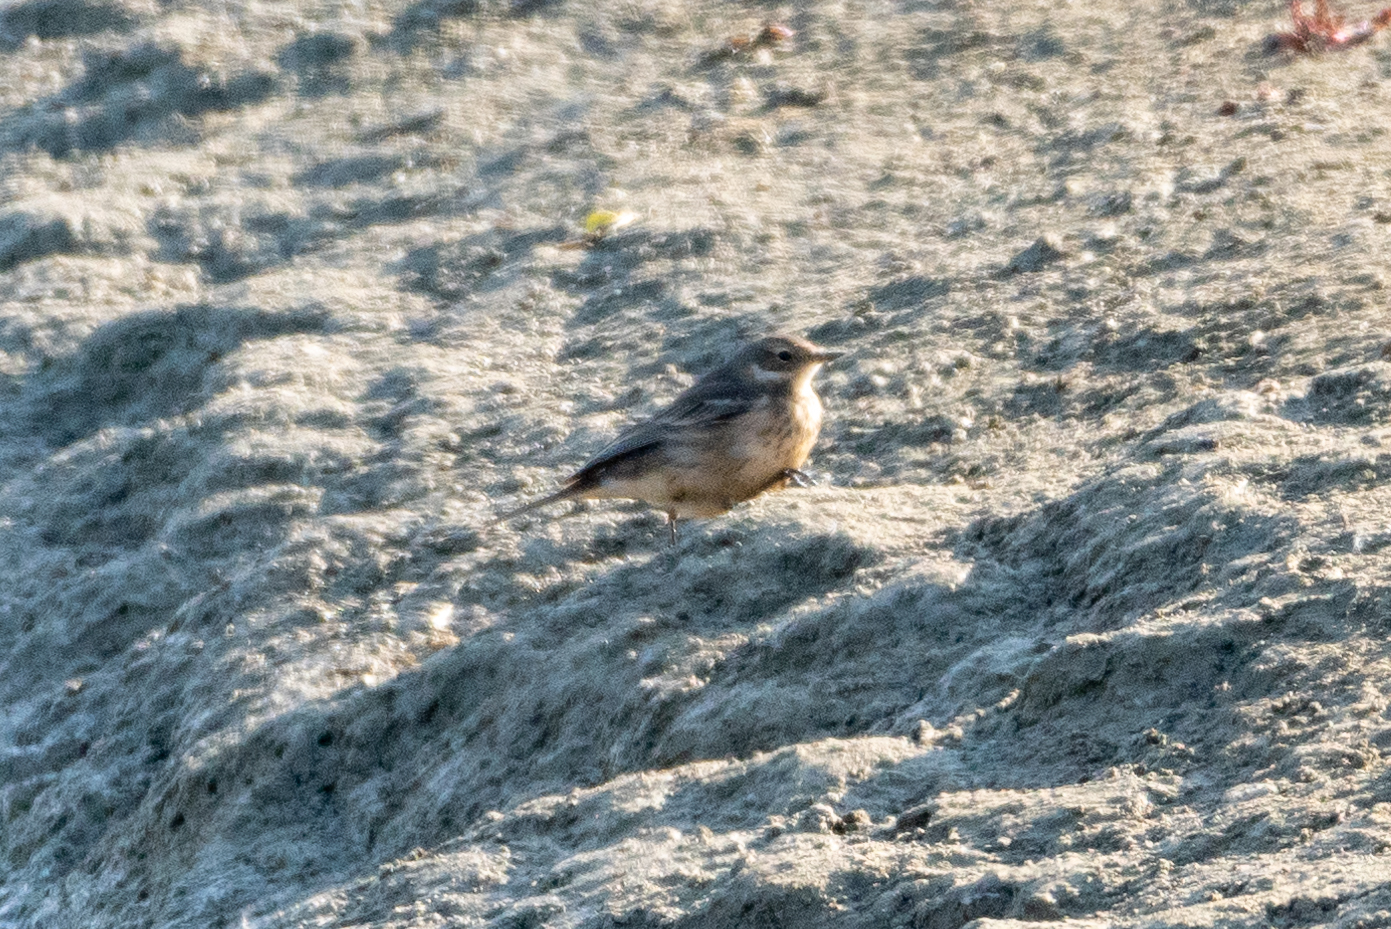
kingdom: Animalia
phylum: Chordata
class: Aves
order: Passeriformes
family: Motacillidae
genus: Anthus
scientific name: Anthus rubescens
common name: Buff-bellied pipit
